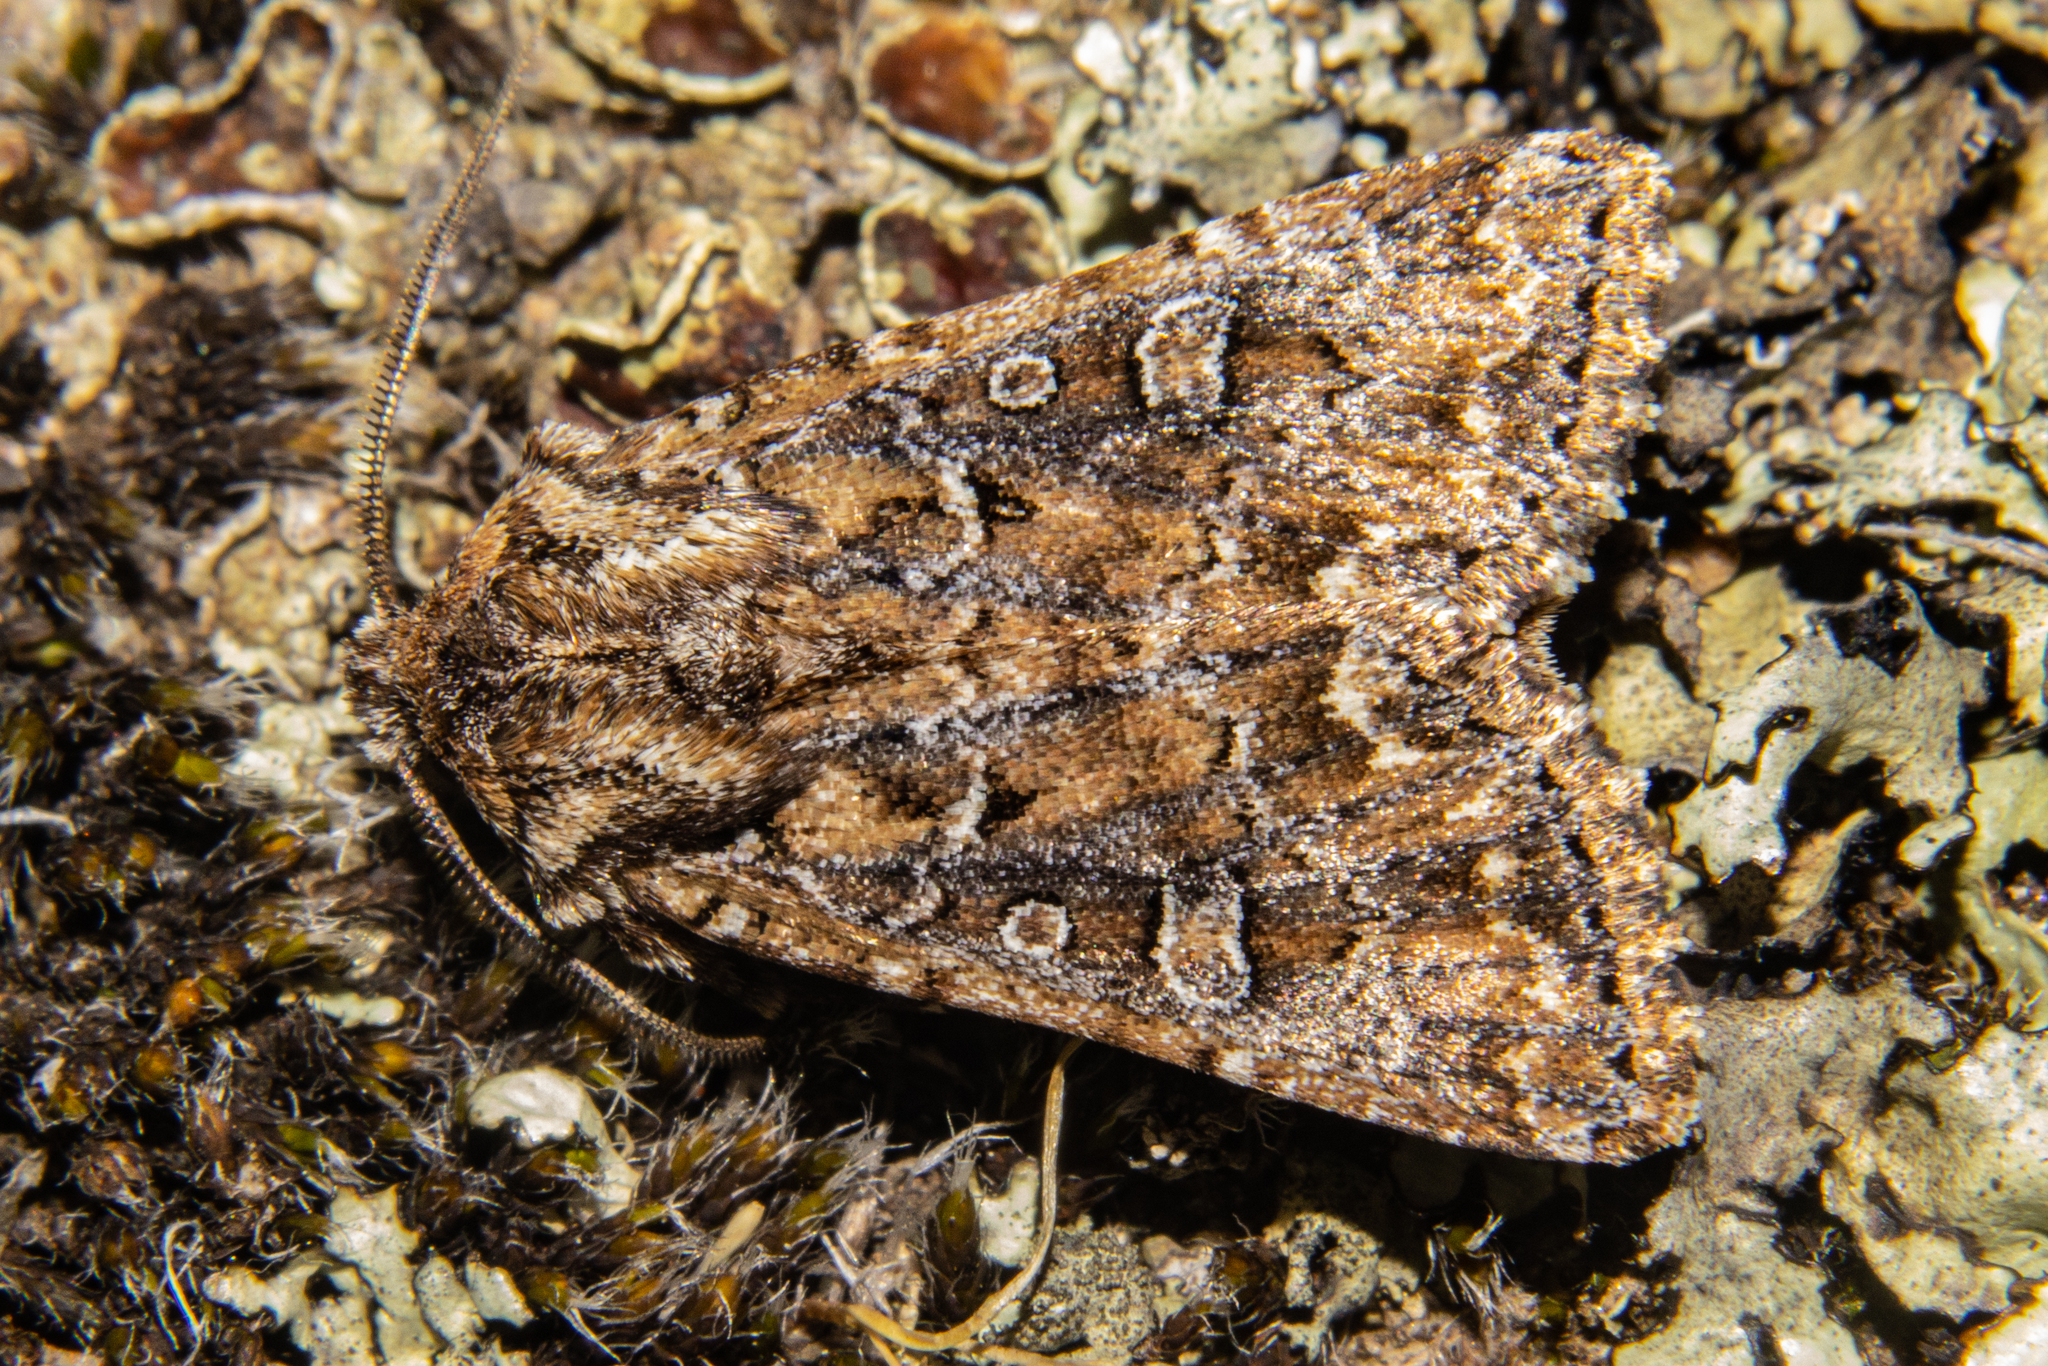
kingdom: Animalia
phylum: Arthropoda
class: Insecta
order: Lepidoptera
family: Noctuidae
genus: Ichneutica
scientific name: Ichneutica lithias
